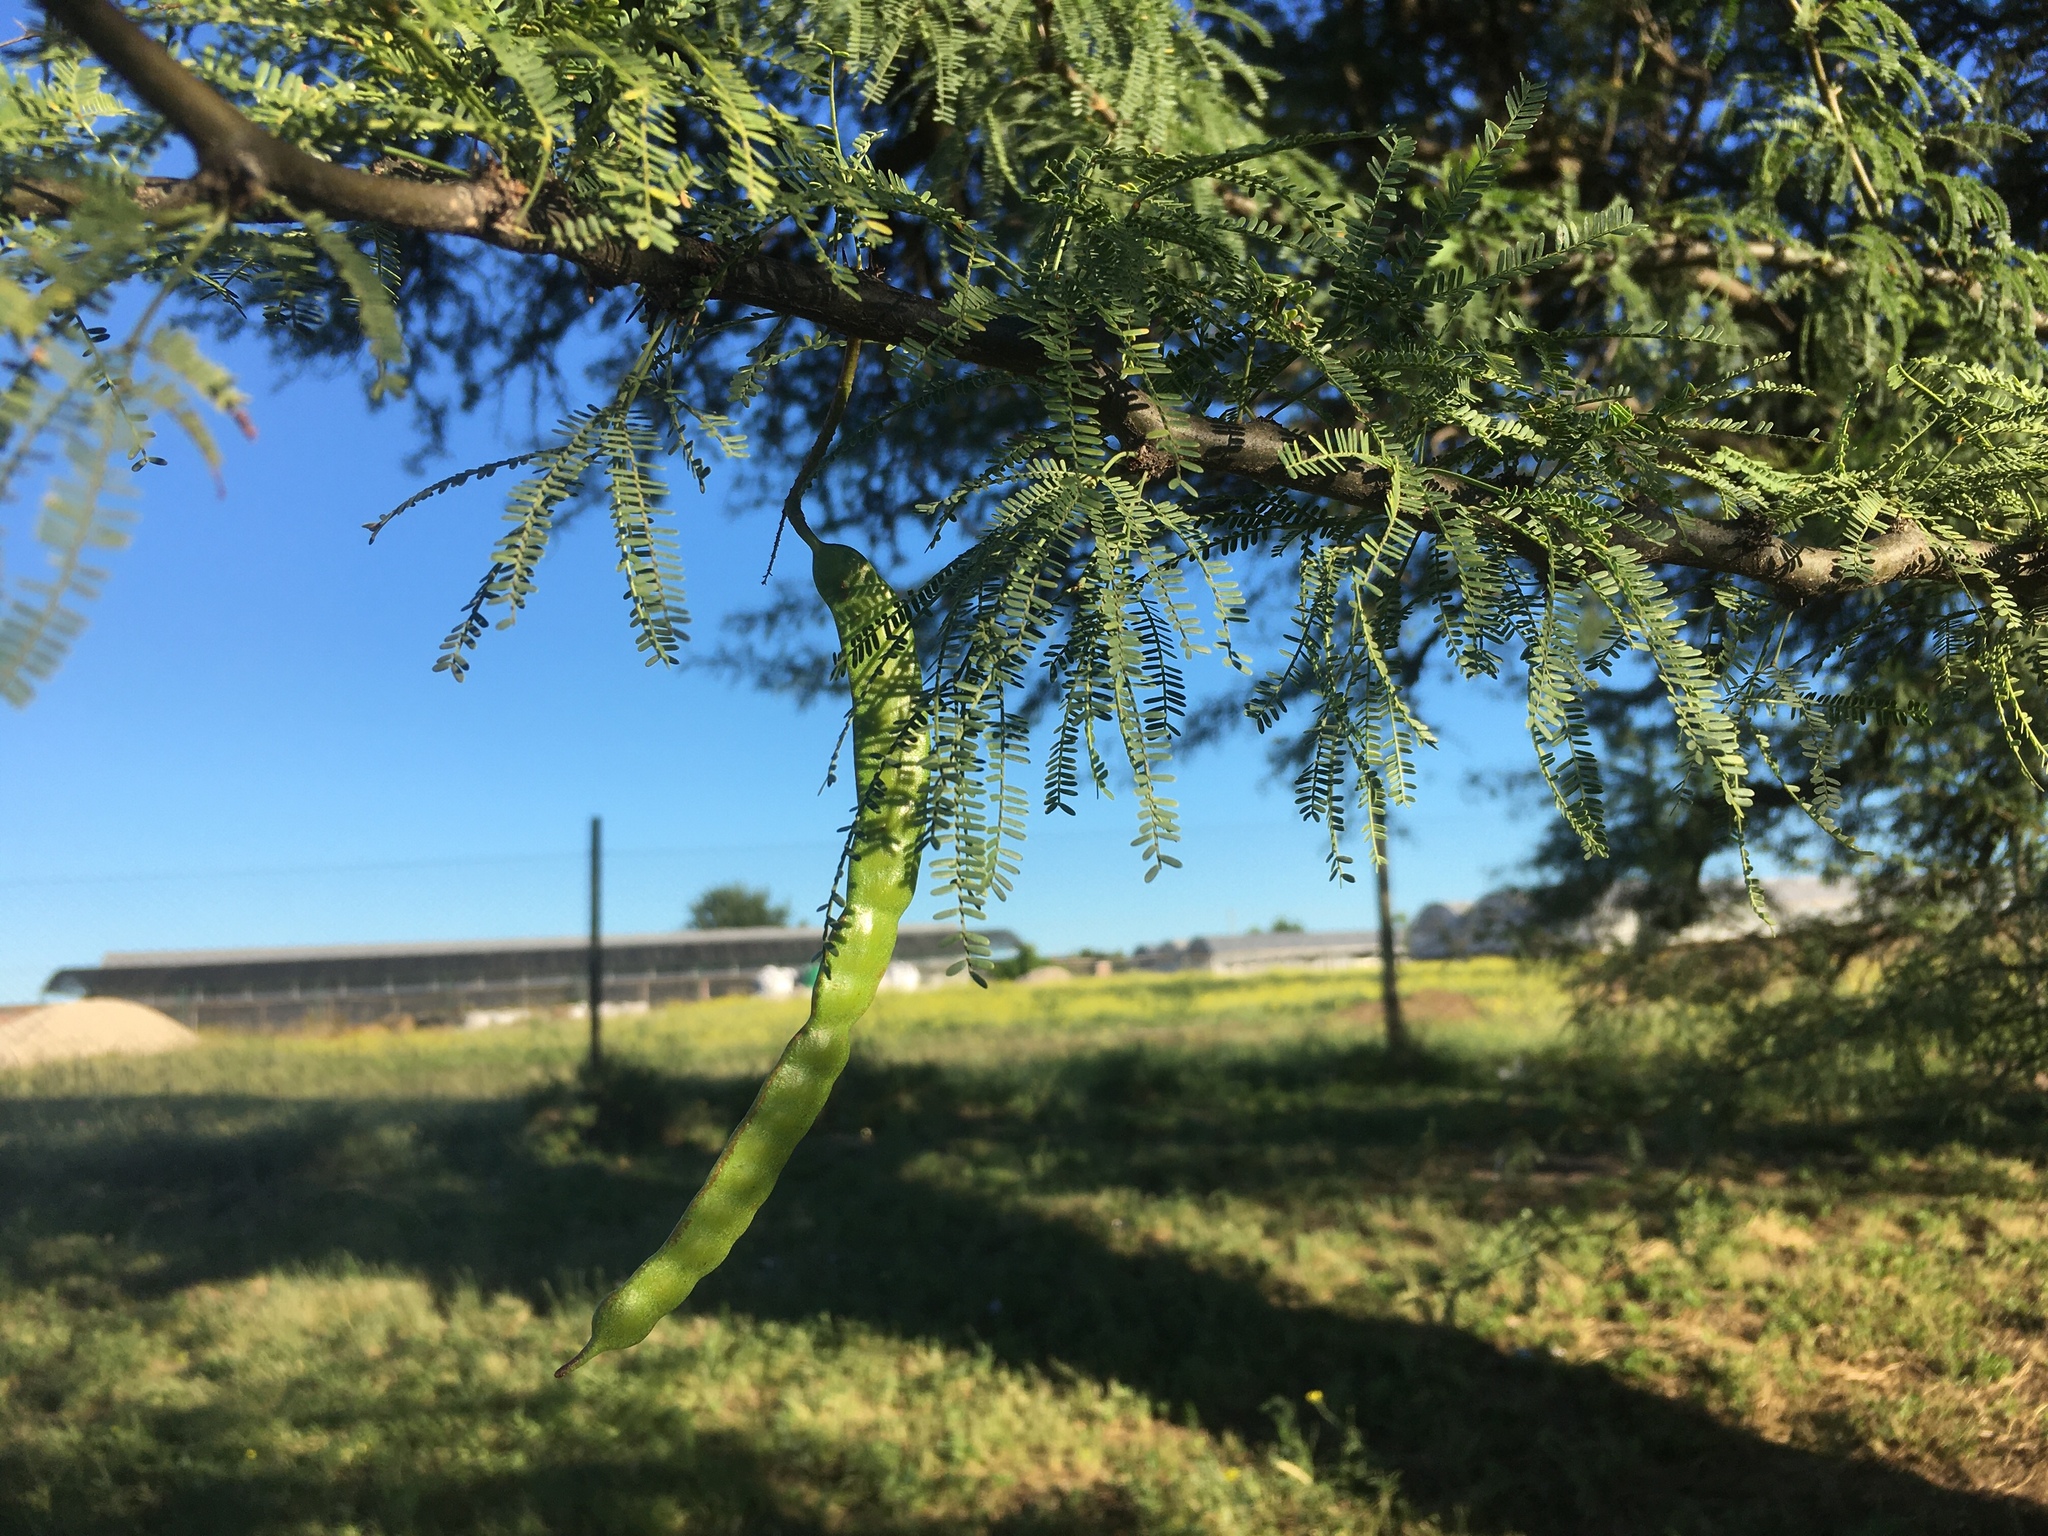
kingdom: Plantae
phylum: Tracheophyta
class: Magnoliopsida
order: Fabales
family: Fabaceae
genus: Prosopis
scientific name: Prosopis caldenia
